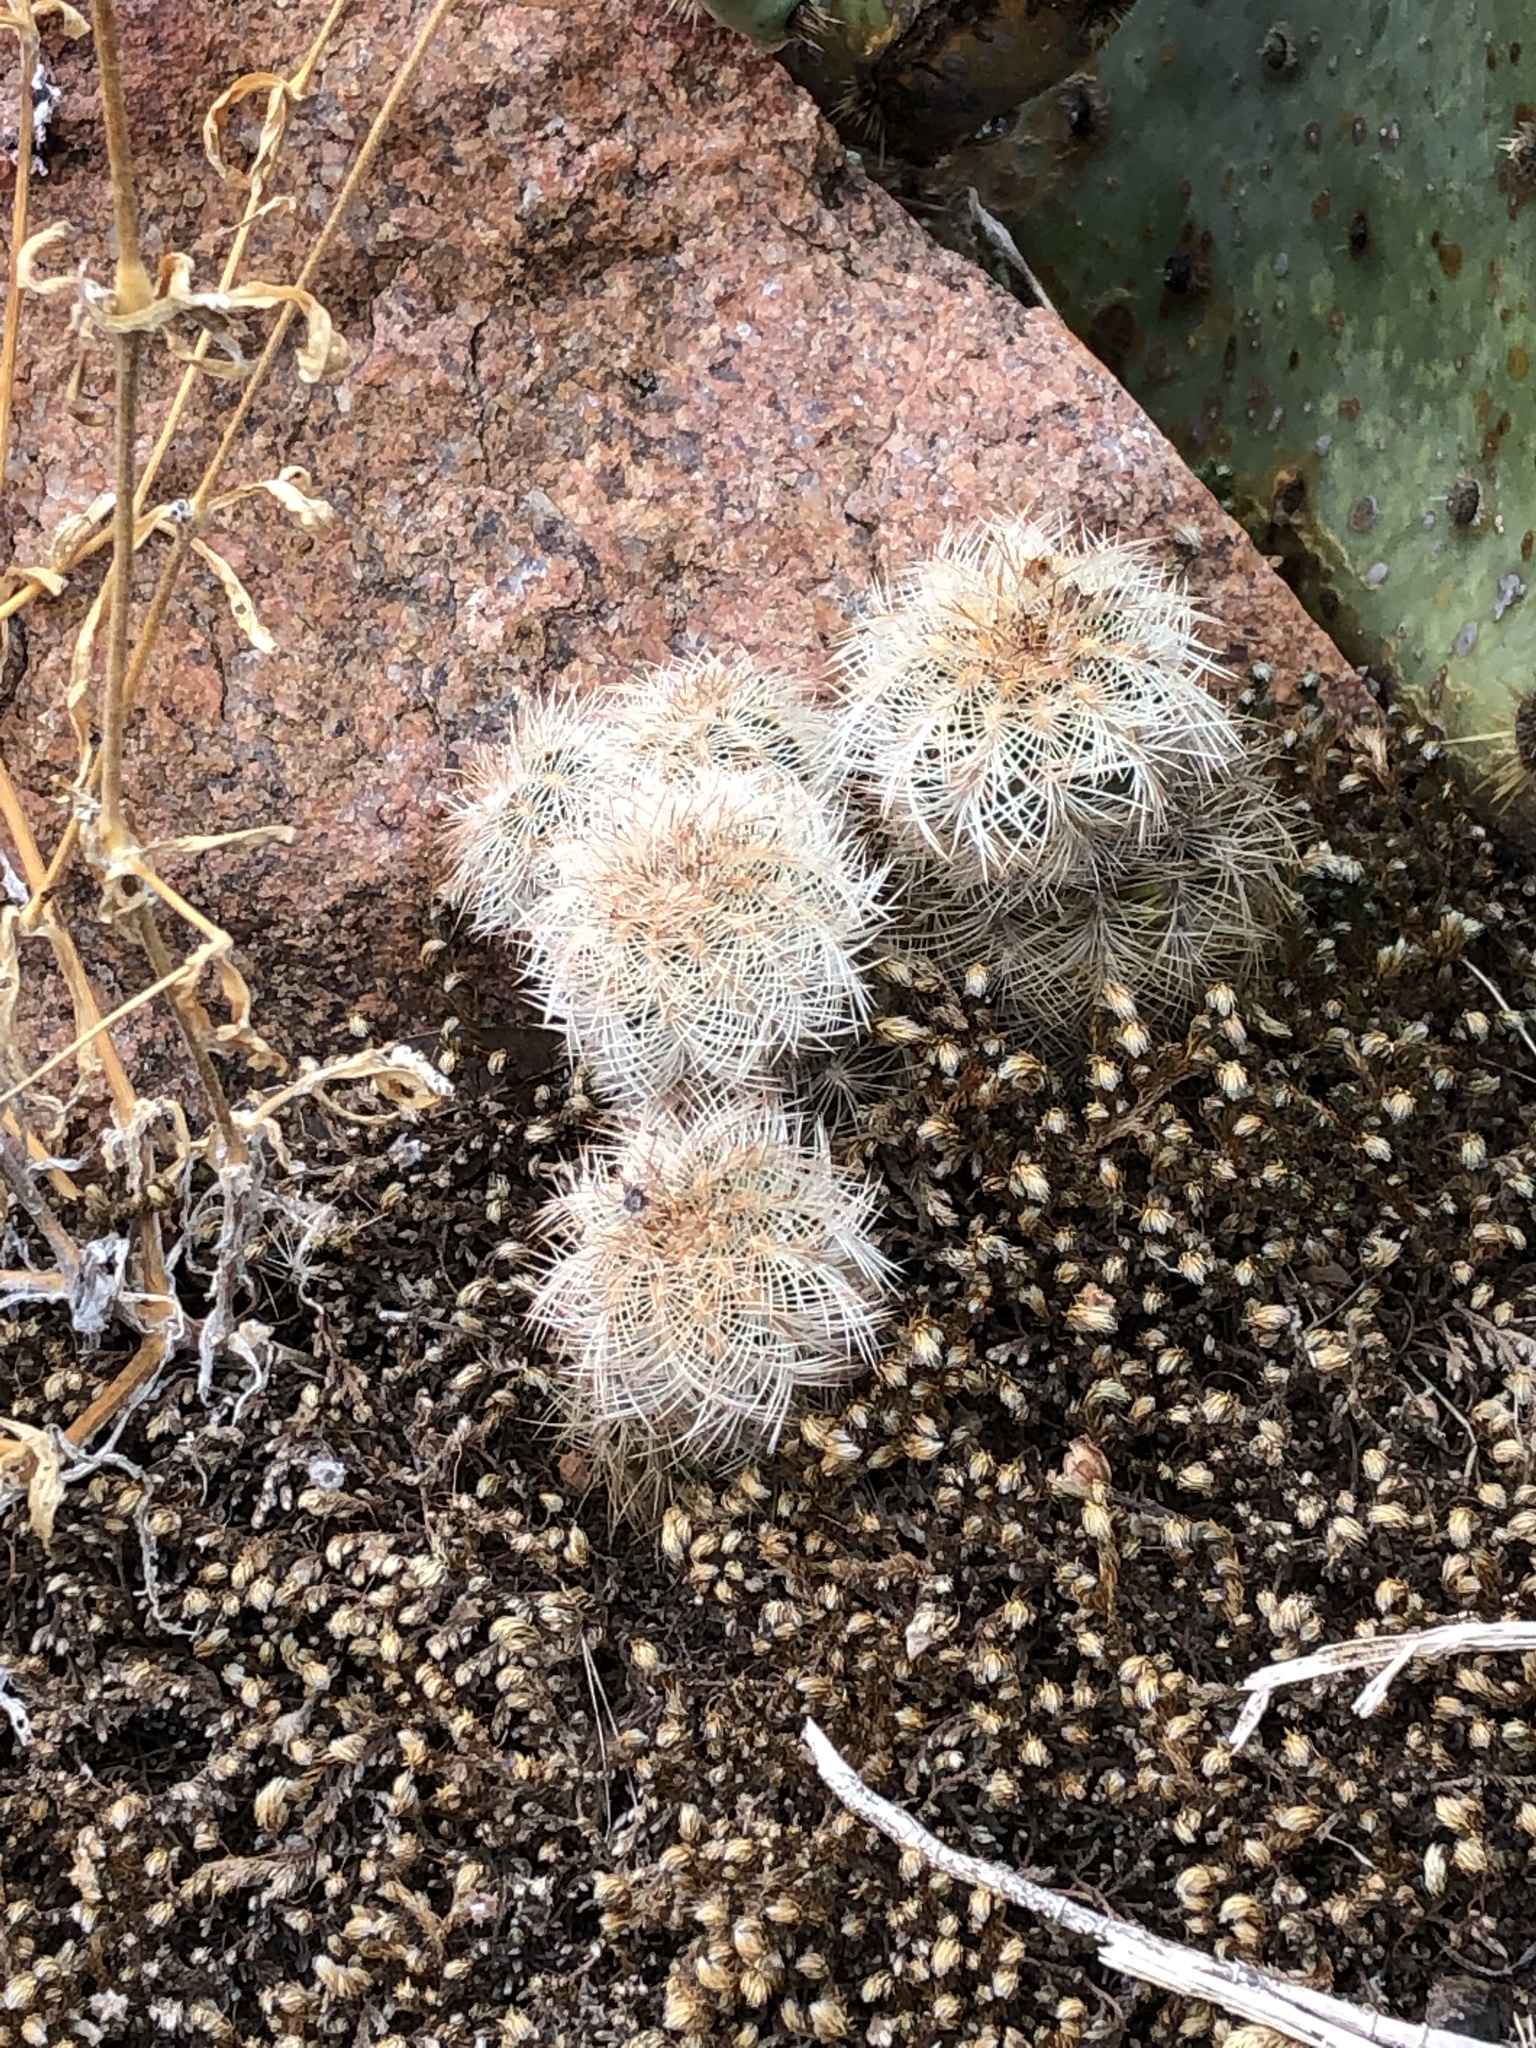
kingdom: Plantae
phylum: Tracheophyta
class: Magnoliopsida
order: Caryophyllales
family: Cactaceae
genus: Echinocereus
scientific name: Echinocereus reichenbachii
